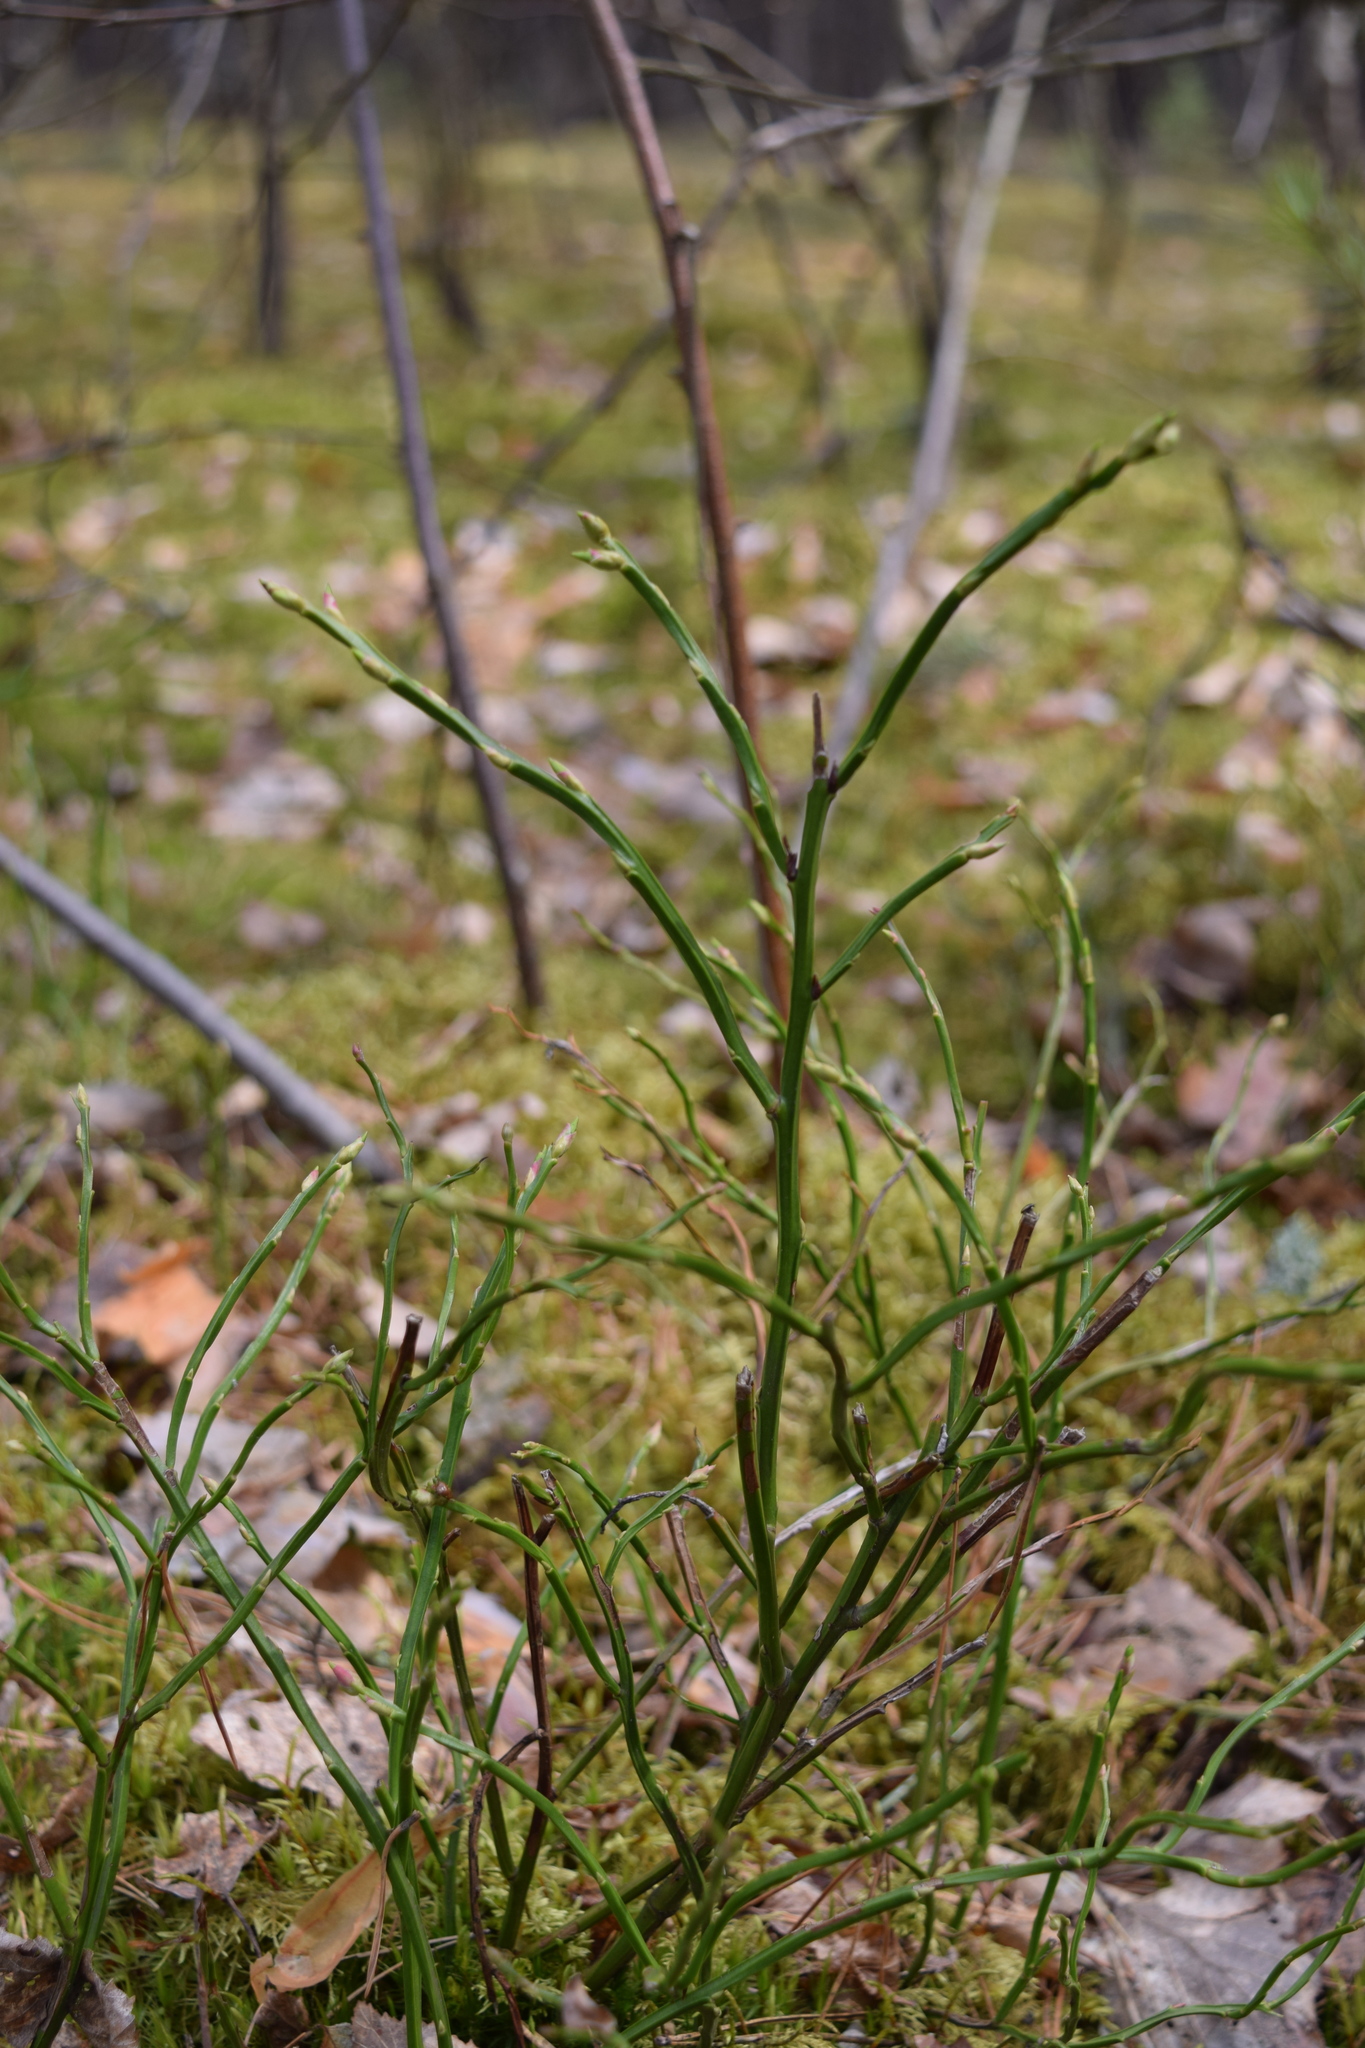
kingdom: Plantae
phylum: Tracheophyta
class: Magnoliopsida
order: Ericales
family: Ericaceae
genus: Vaccinium
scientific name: Vaccinium myrtillus
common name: Bilberry
